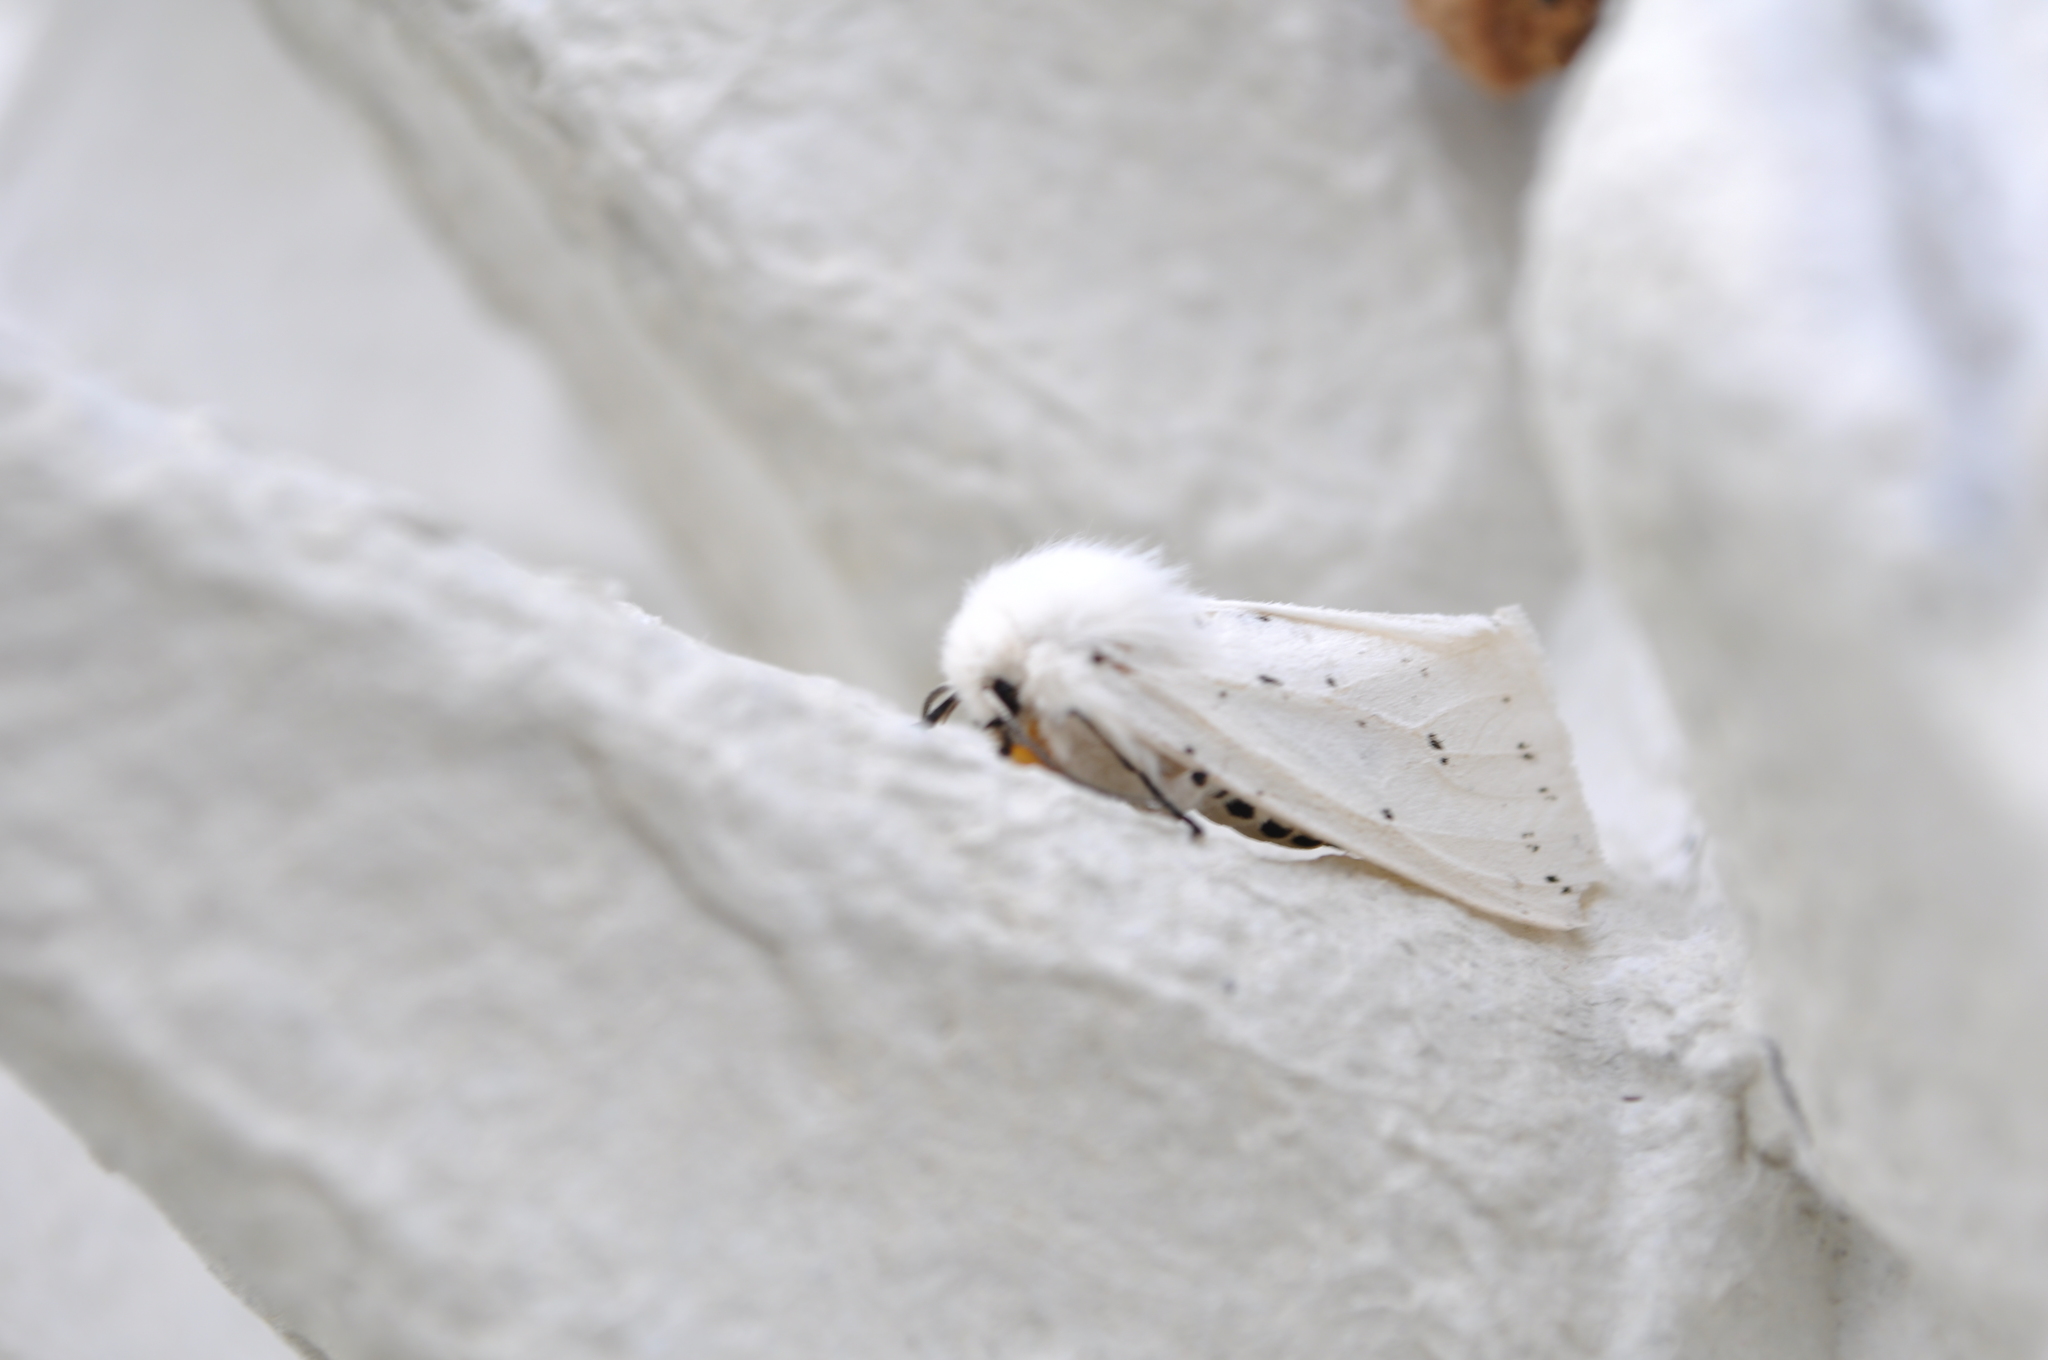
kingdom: Animalia
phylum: Arthropoda
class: Insecta
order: Lepidoptera
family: Erebidae
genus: Spilosoma
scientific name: Spilosoma lubricipeda
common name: White ermine
